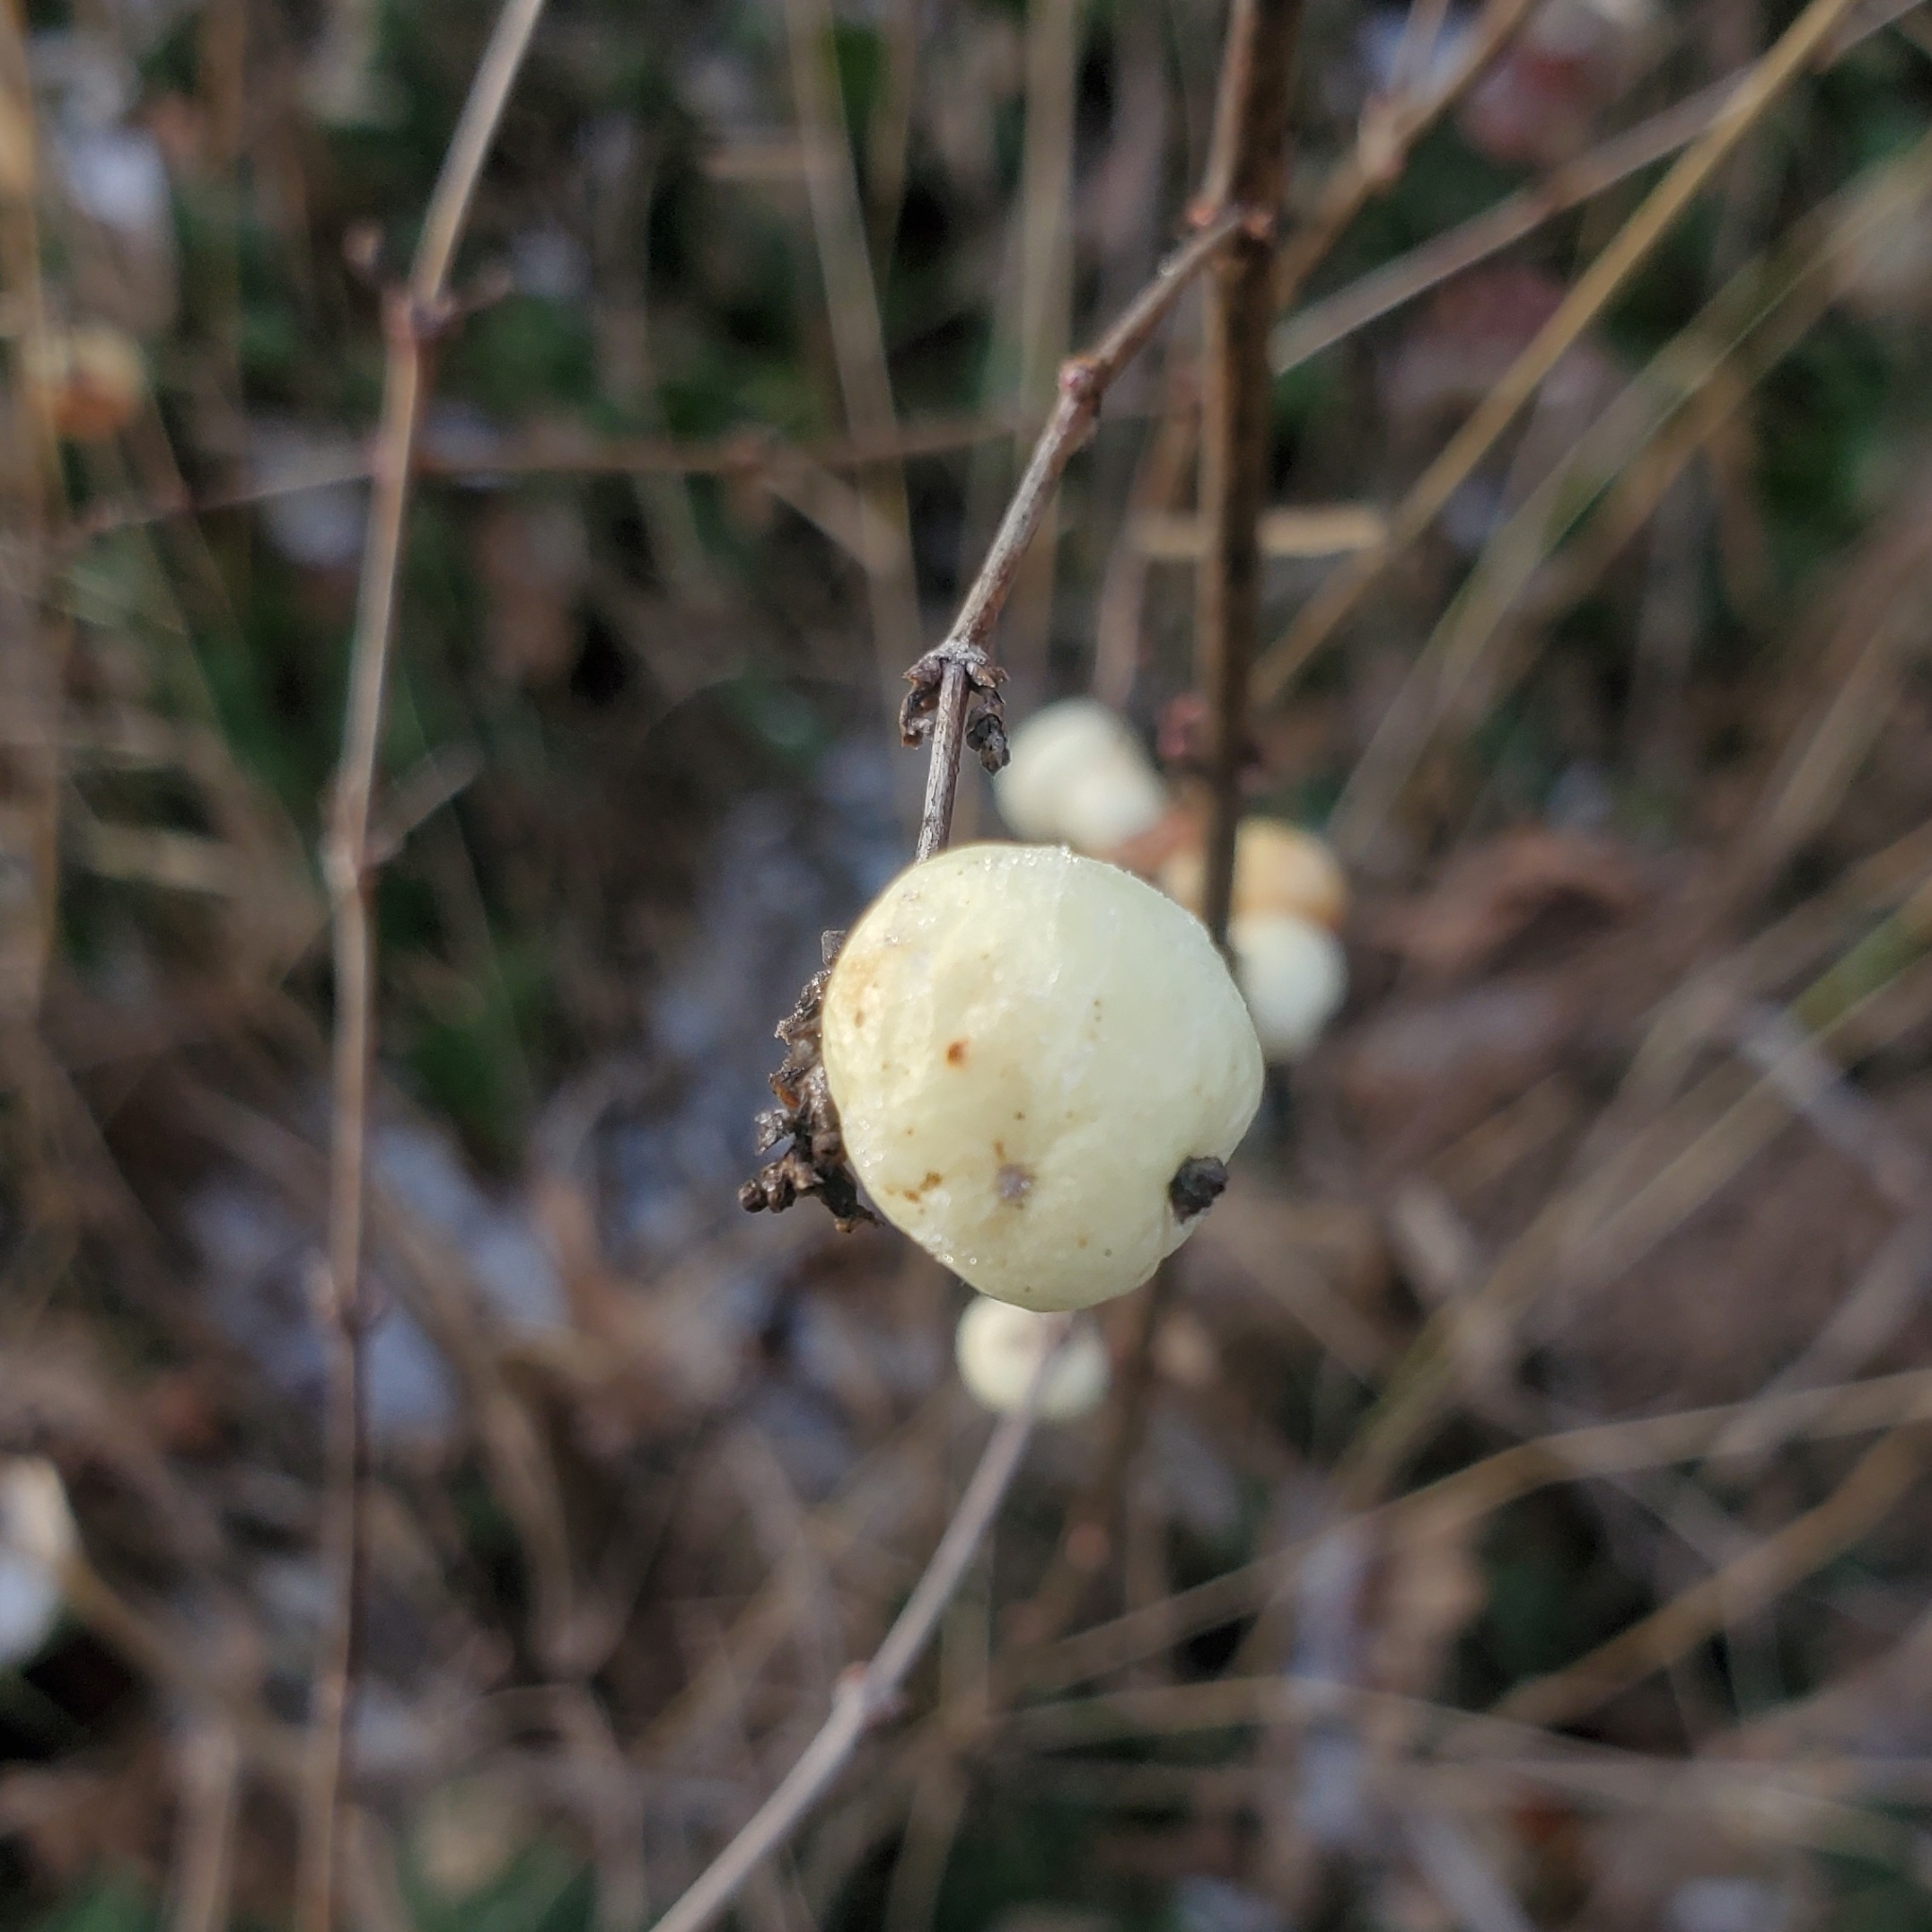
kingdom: Plantae
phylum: Tracheophyta
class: Magnoliopsida
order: Dipsacales
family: Caprifoliaceae
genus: Symphoricarpos
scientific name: Symphoricarpos albus
